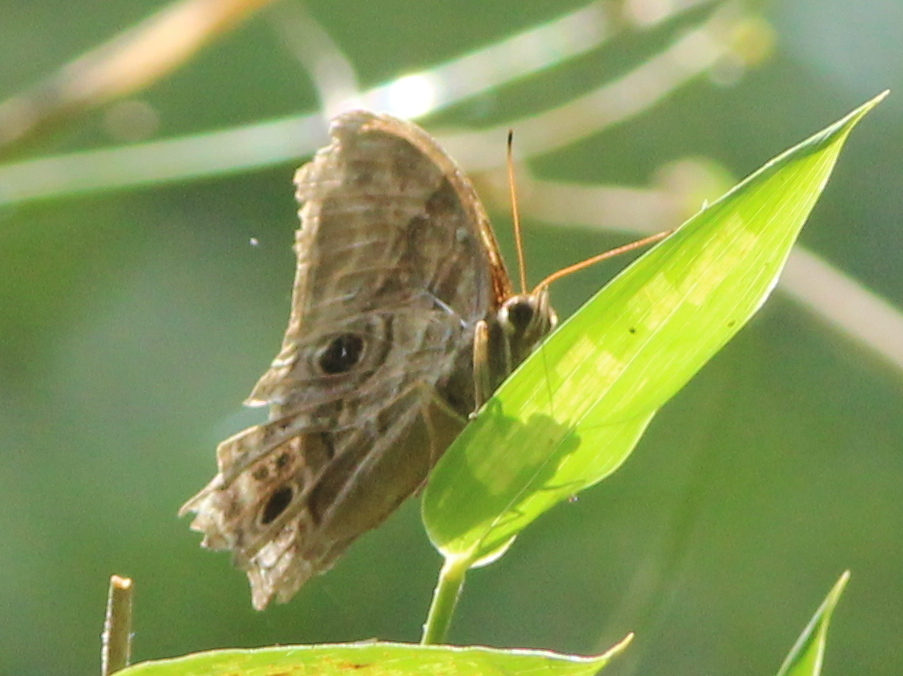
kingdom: Animalia
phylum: Arthropoda
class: Insecta
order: Lepidoptera
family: Nymphalidae
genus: Lethe
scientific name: Lethe drypetis
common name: Tamil treebrown
